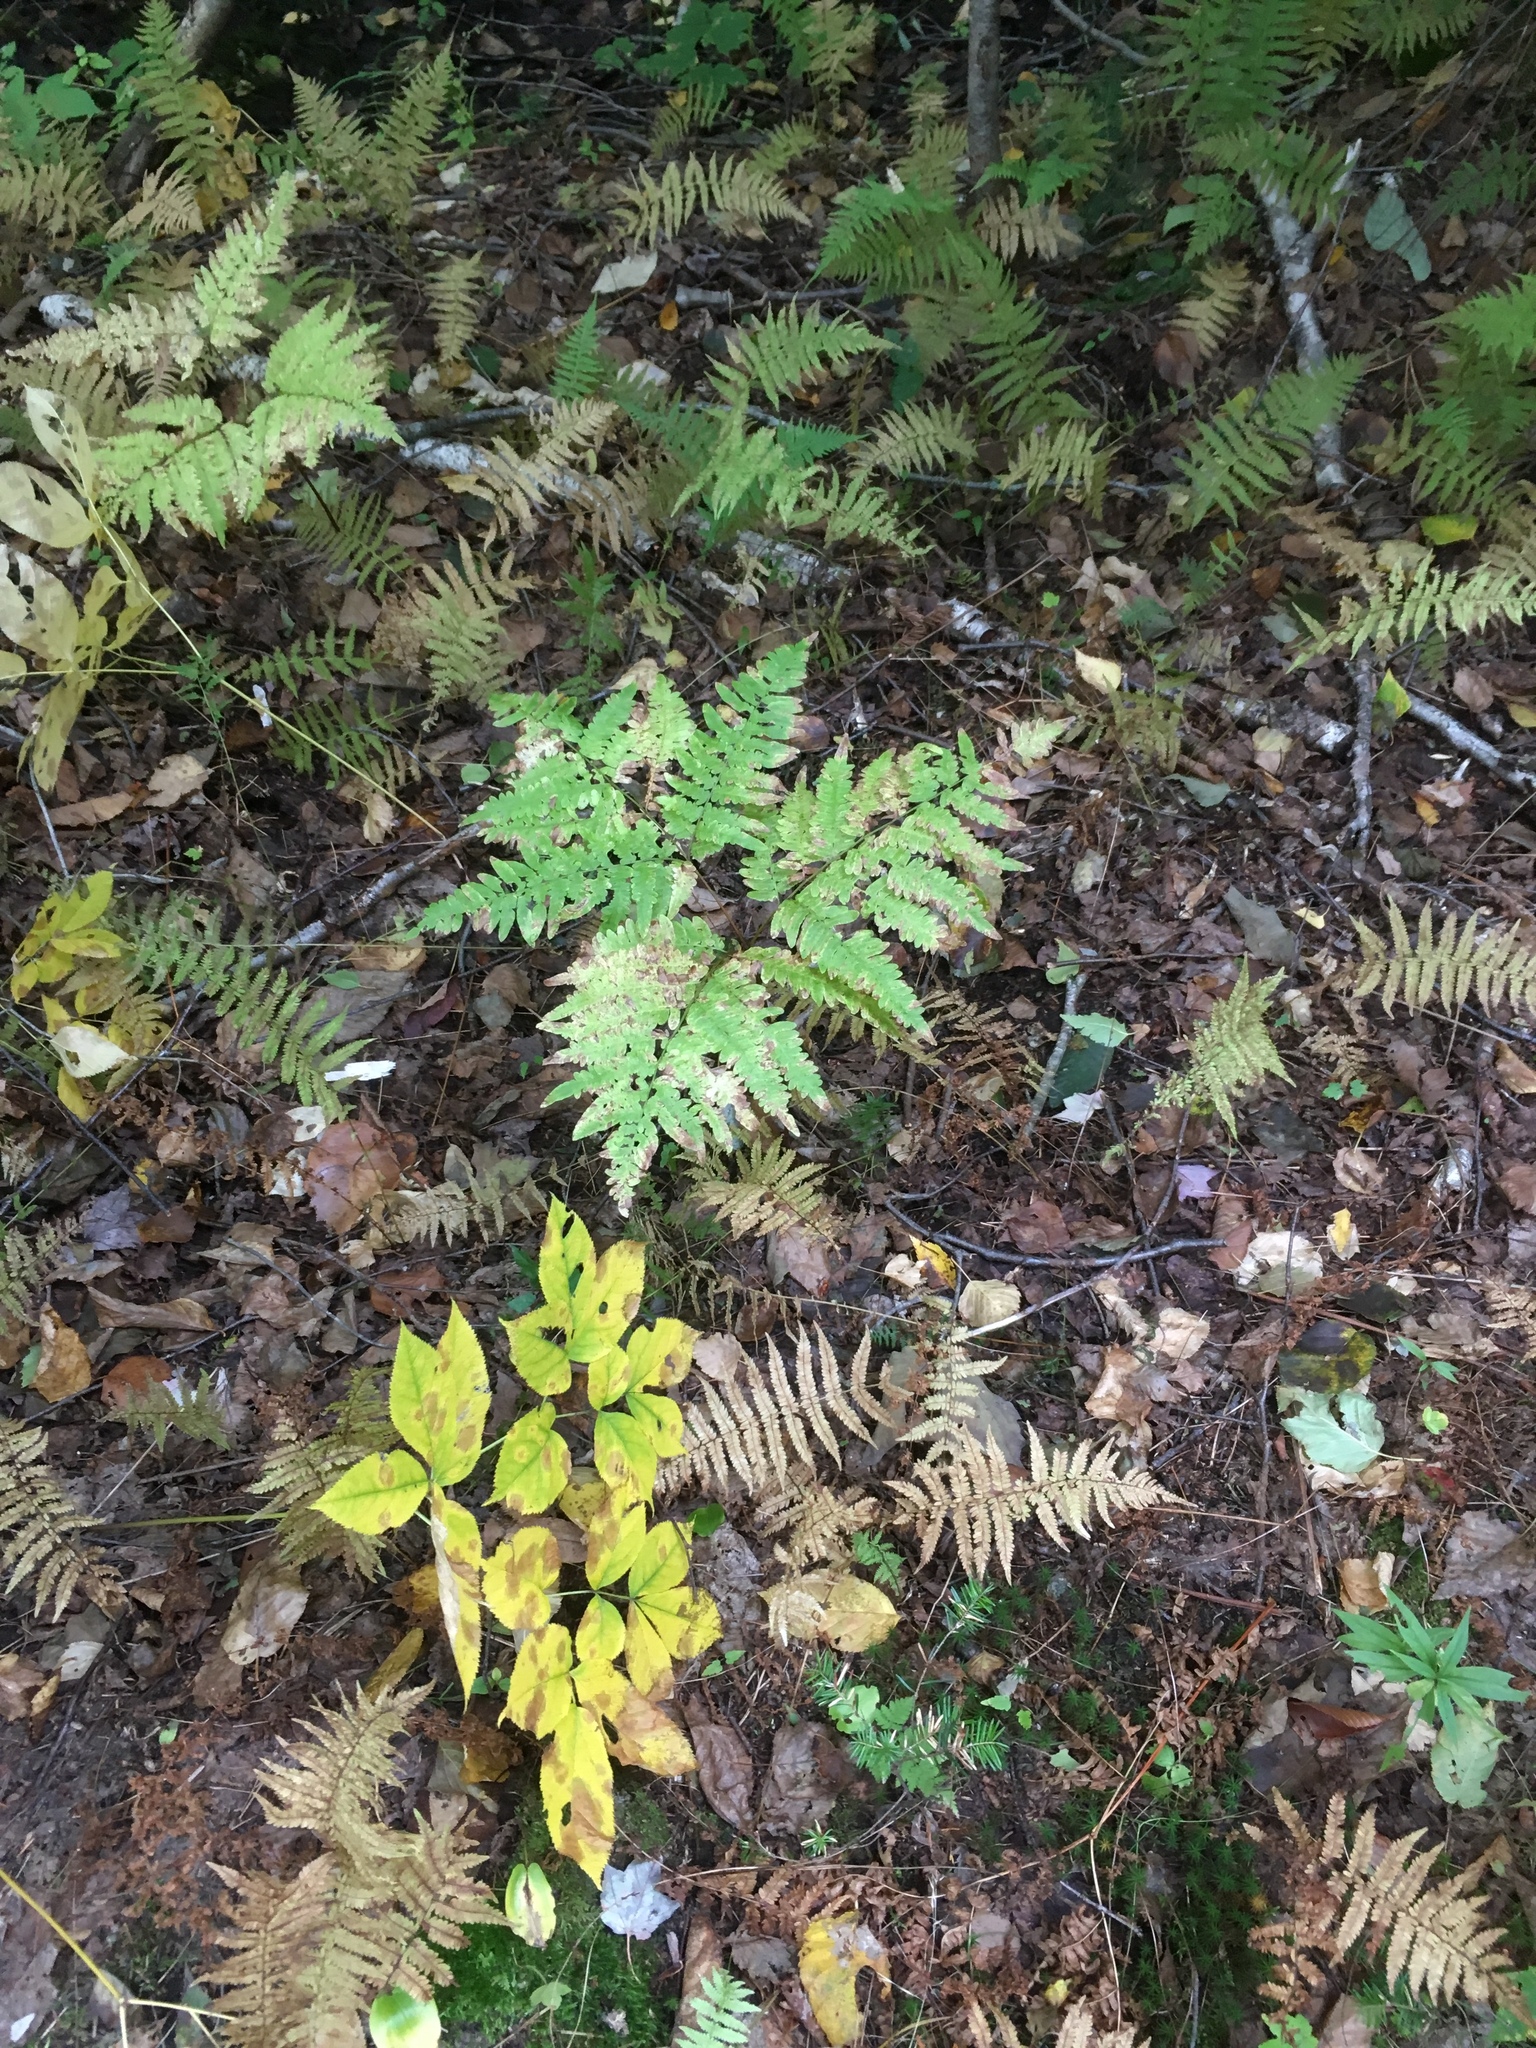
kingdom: Plantae
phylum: Tracheophyta
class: Polypodiopsida
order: Polypodiales
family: Dennstaedtiaceae
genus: Pteridium
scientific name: Pteridium aquilinum
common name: Bracken
